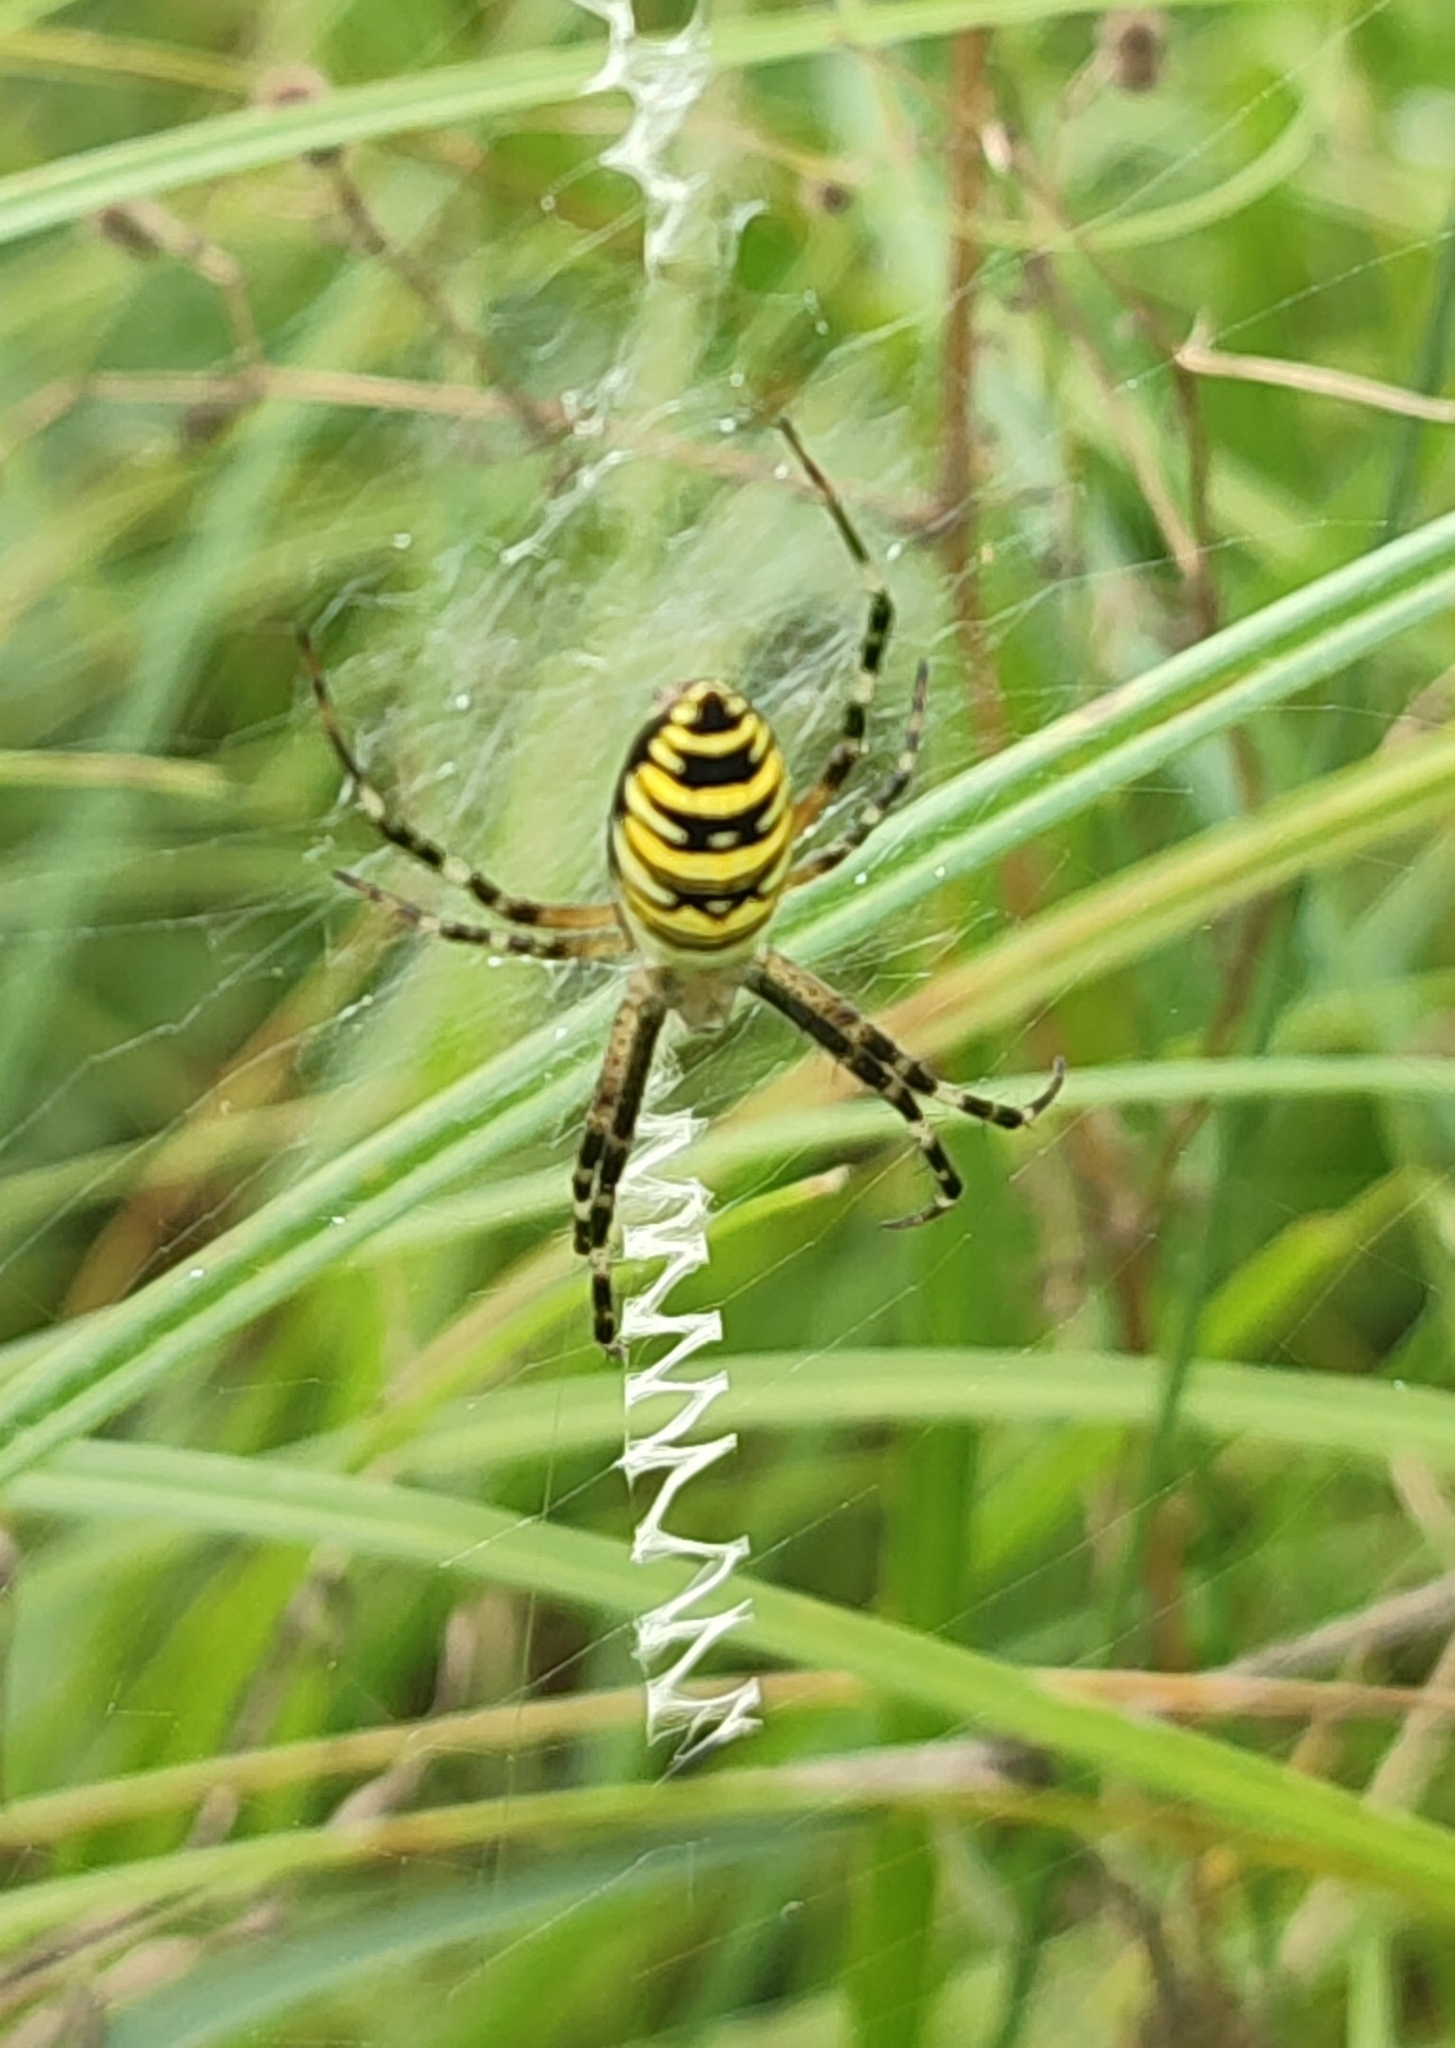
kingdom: Animalia
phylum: Arthropoda
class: Arachnida
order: Araneae
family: Araneidae
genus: Argiope
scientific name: Argiope bruennichi
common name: Wasp spider
